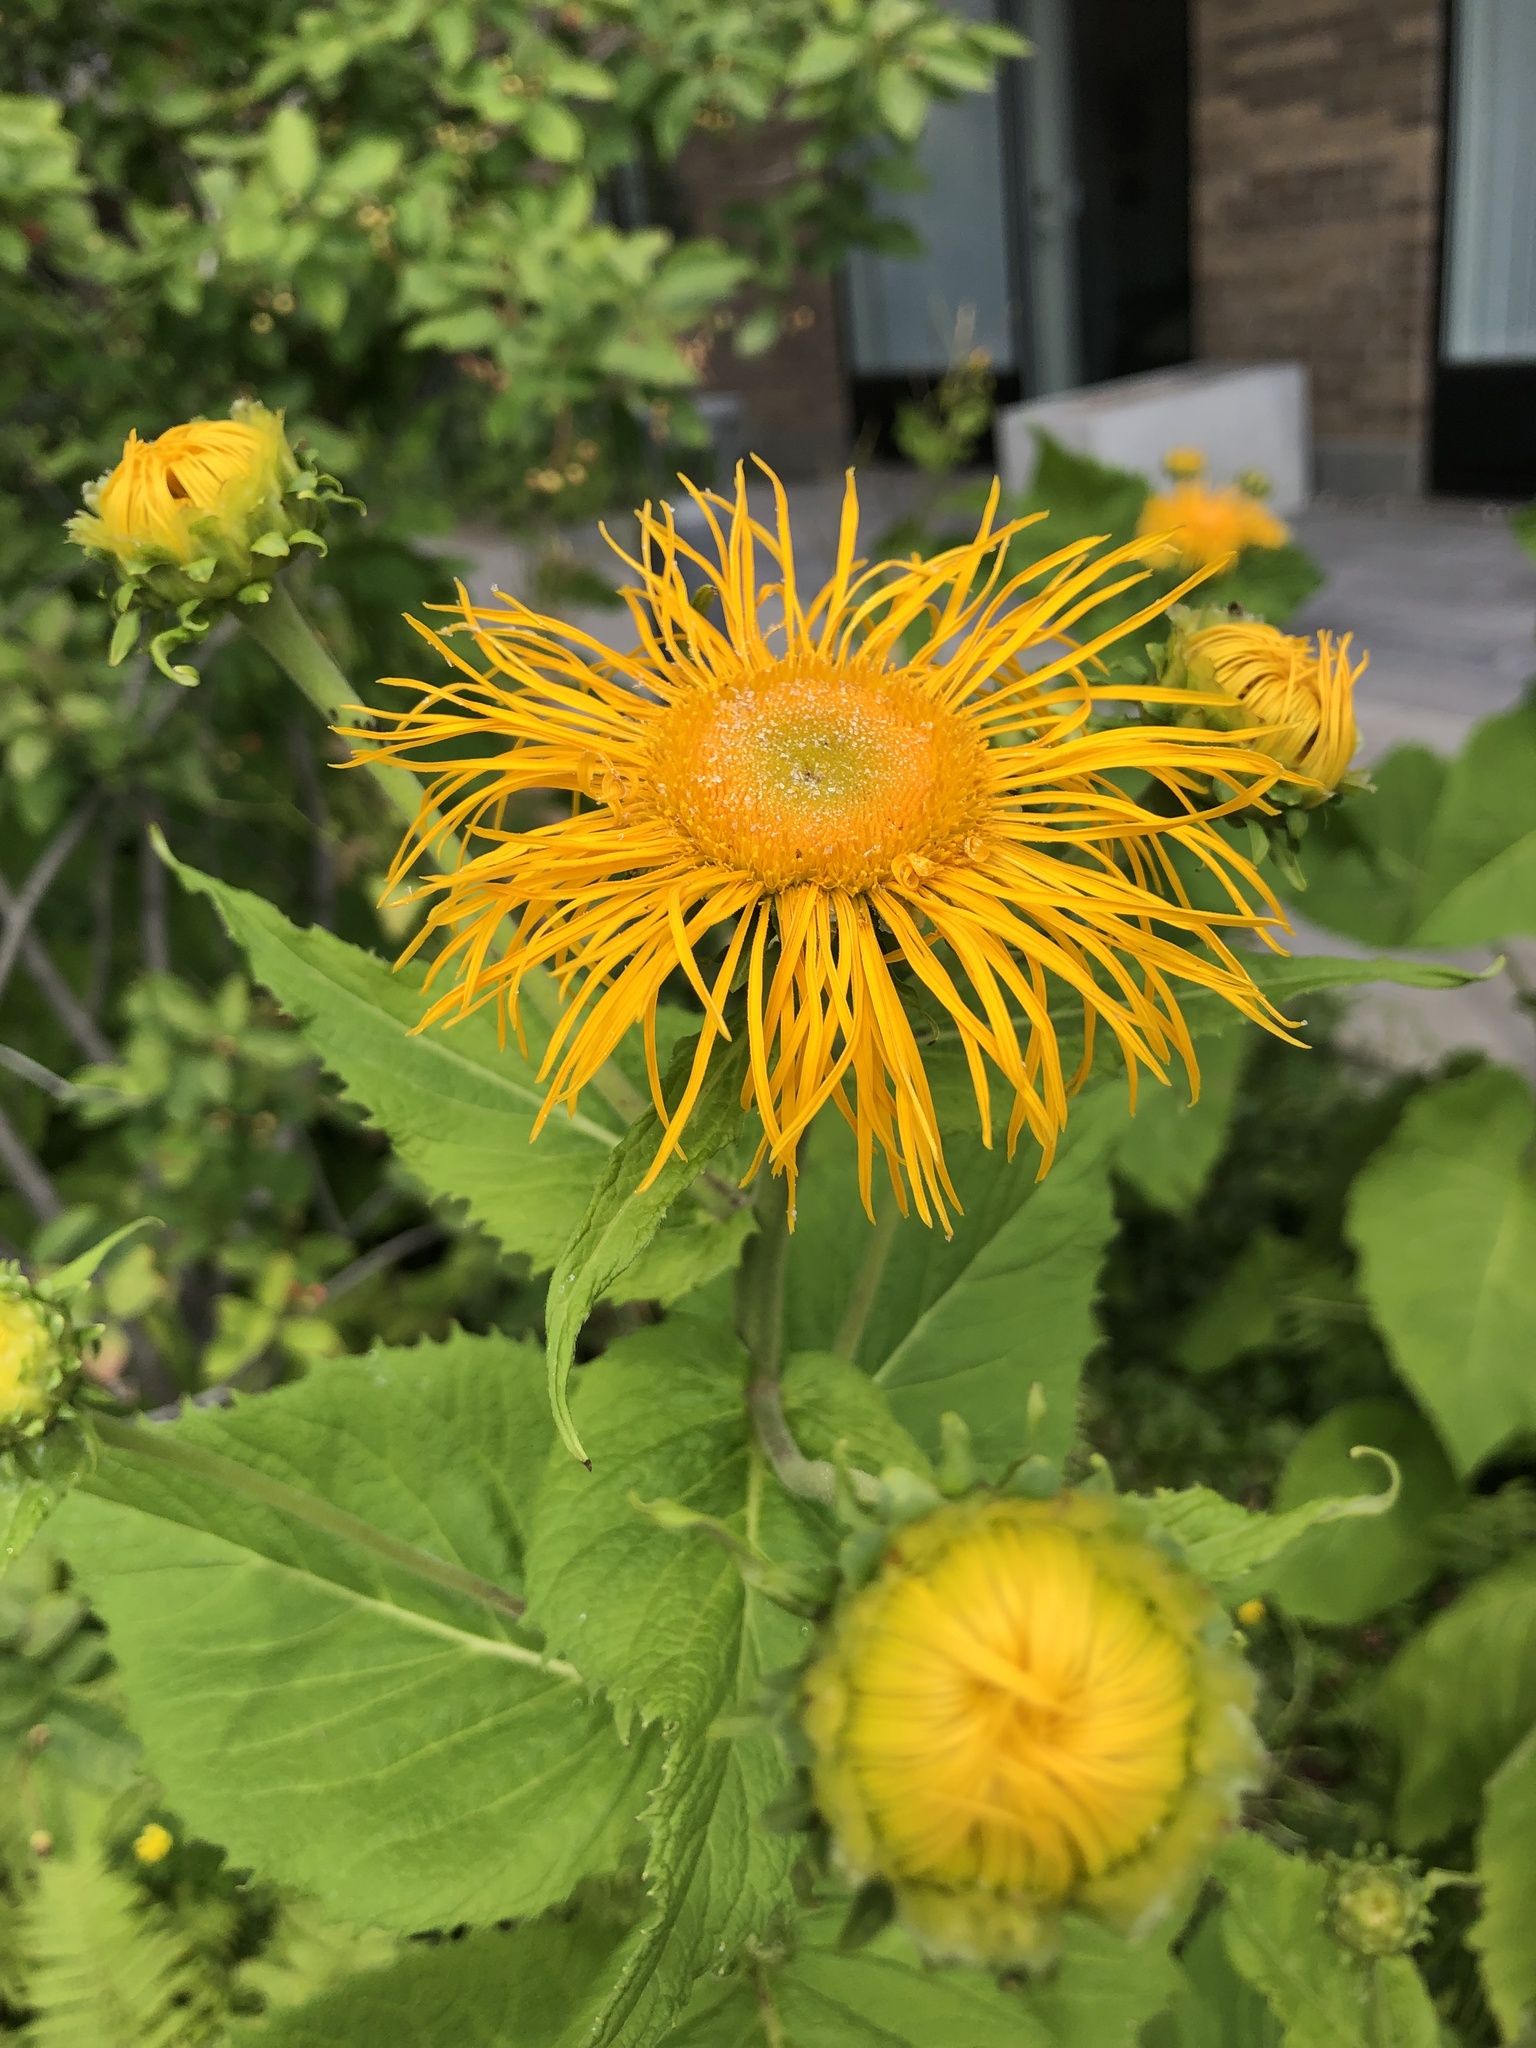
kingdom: Plantae
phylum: Tracheophyta
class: Magnoliopsida
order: Asterales
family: Asteraceae
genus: Telekia
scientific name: Telekia speciosa
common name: Yellow oxeye
